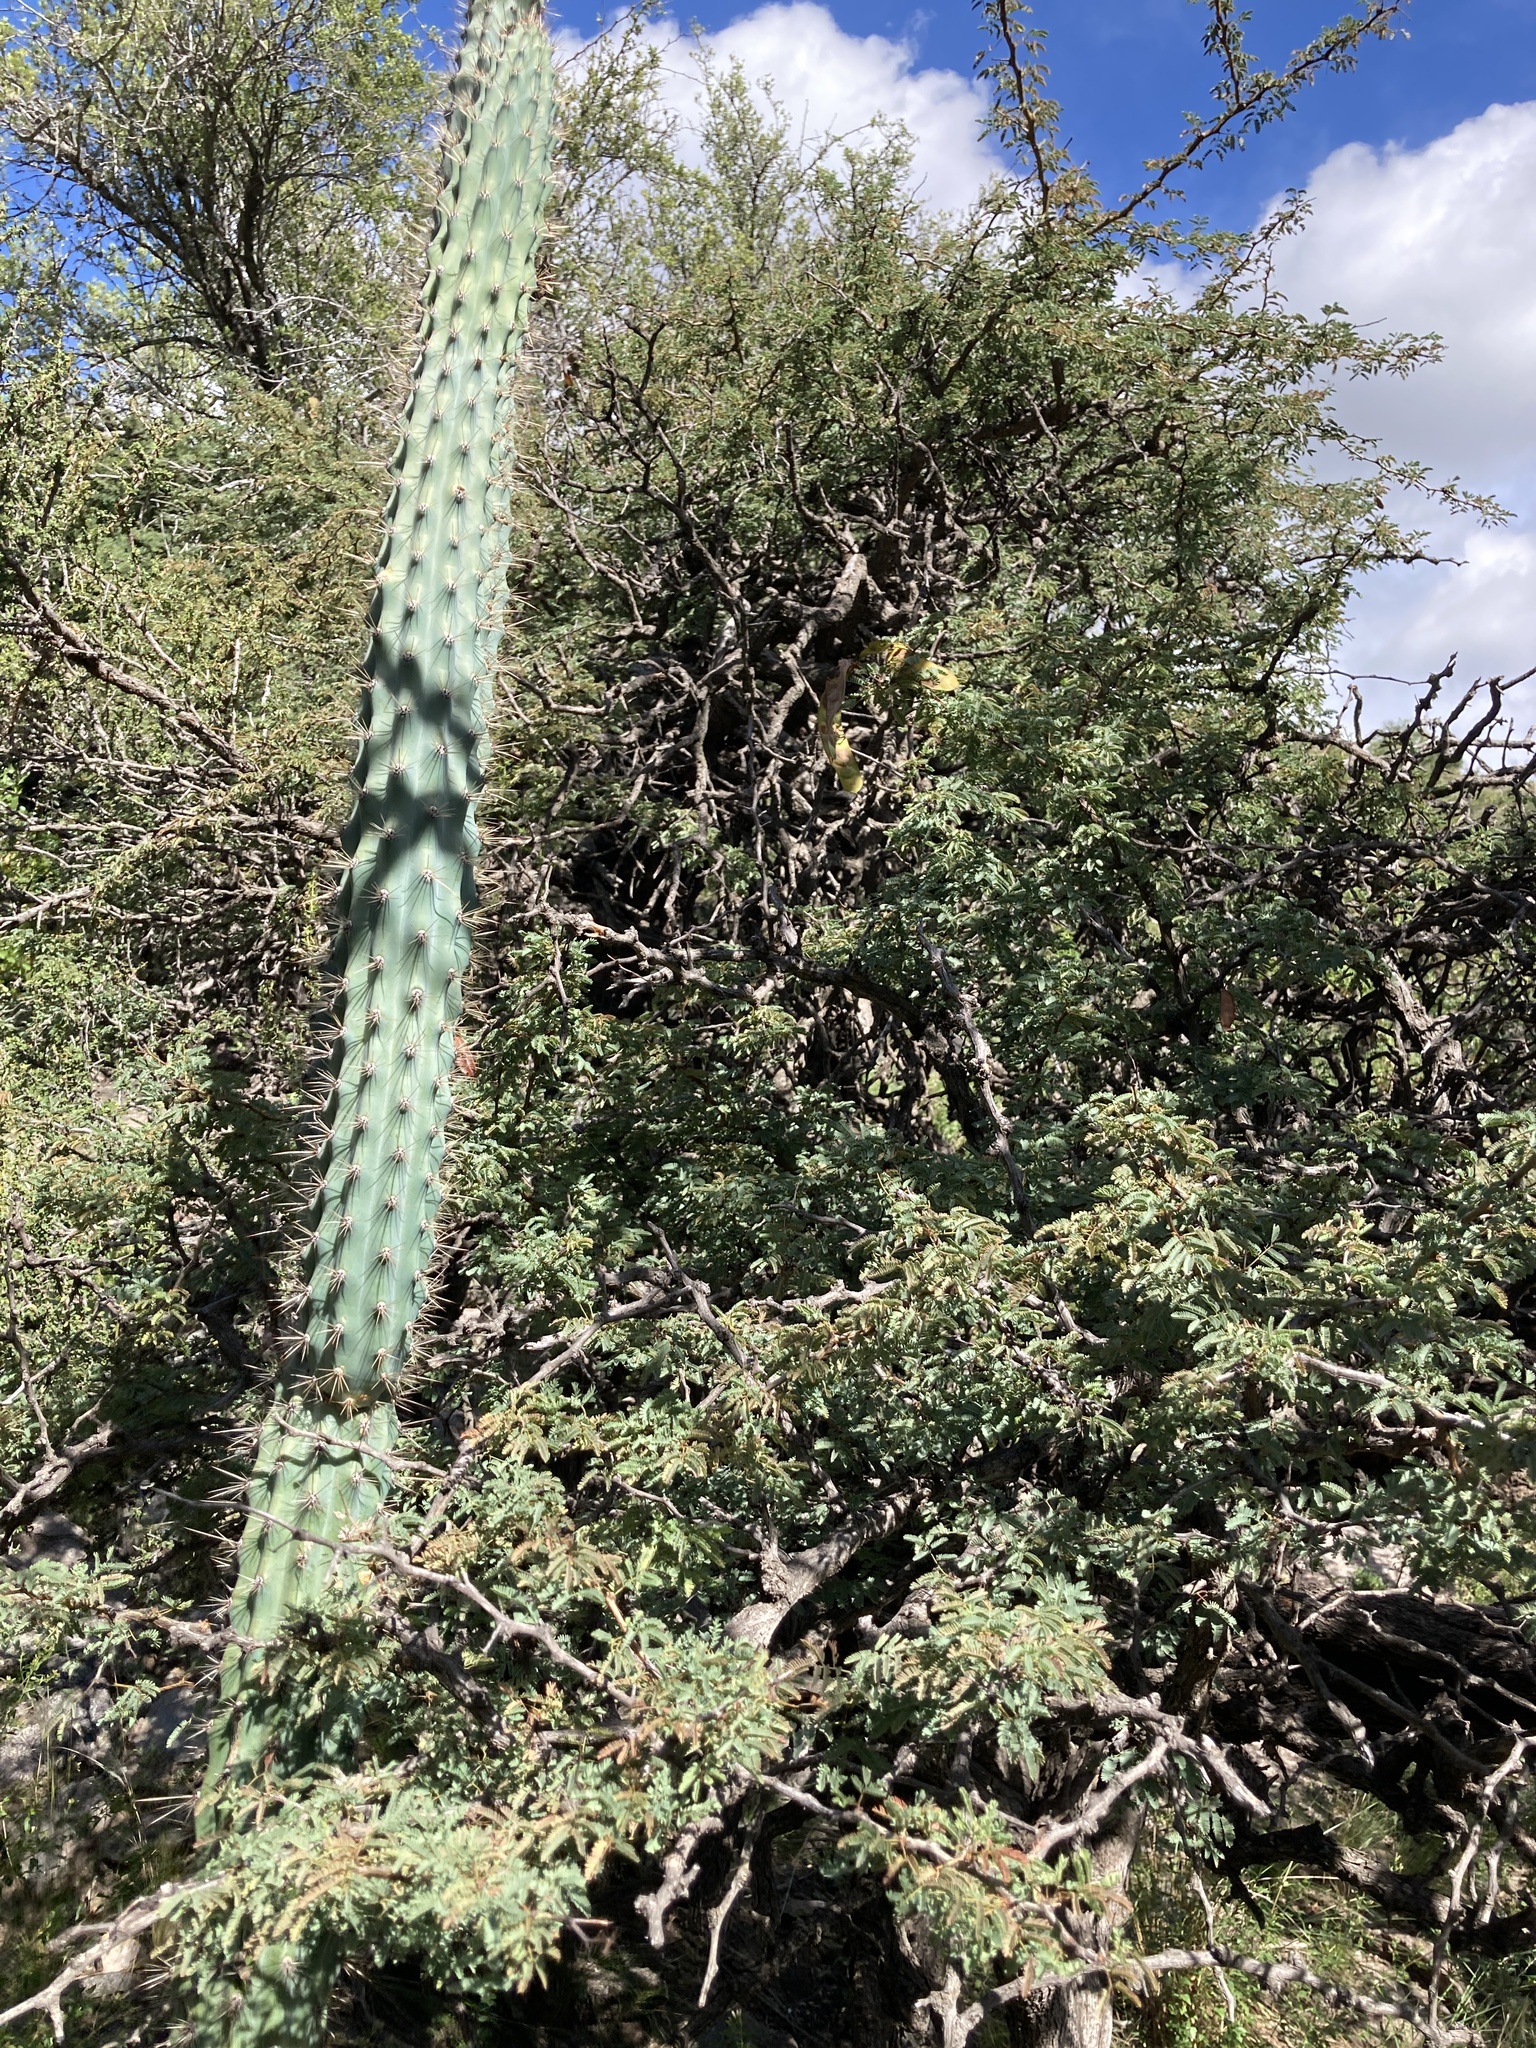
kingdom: Plantae
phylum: Tracheophyta
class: Magnoliopsida
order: Caryophyllales
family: Cactaceae
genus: Cereus
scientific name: Cereus aethiops
